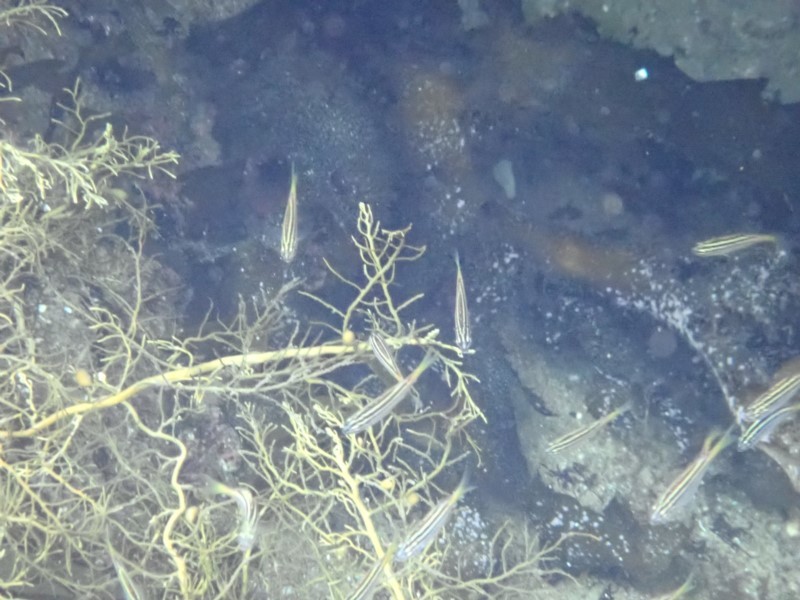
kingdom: Animalia
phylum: Chordata
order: Perciformes
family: Kyphosidae
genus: Atypichthys
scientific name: Atypichthys strigatus
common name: Australian mado
